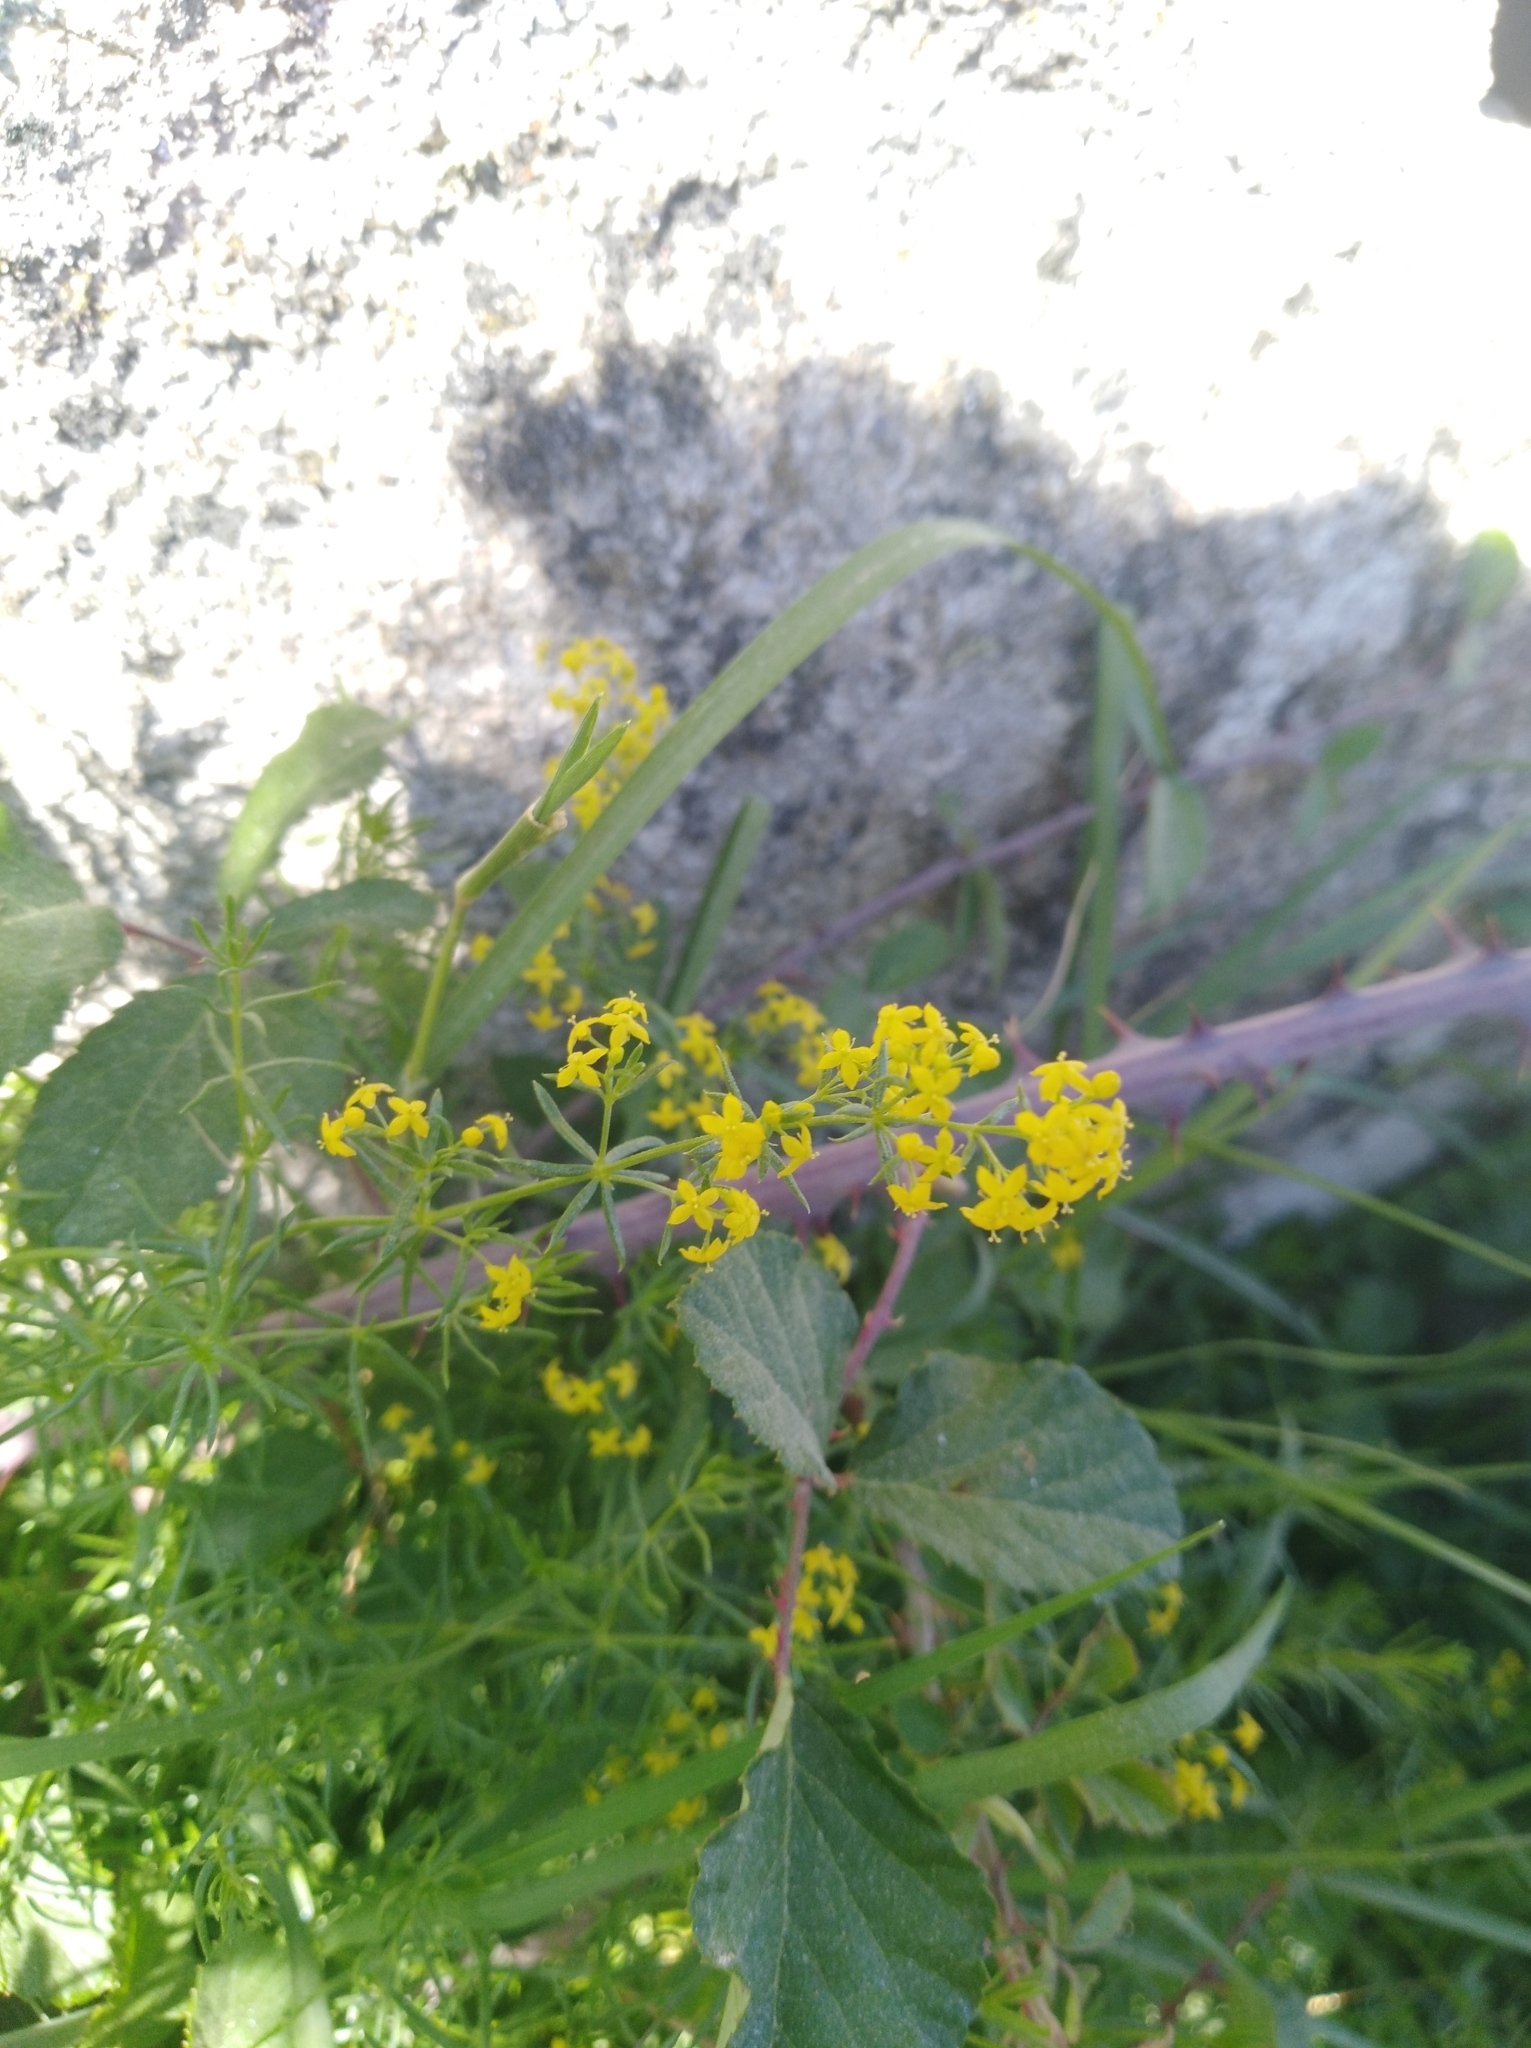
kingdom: Plantae
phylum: Tracheophyta
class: Magnoliopsida
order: Gentianales
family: Rubiaceae
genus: Galium
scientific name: Galium verum
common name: Lady's bedstraw
